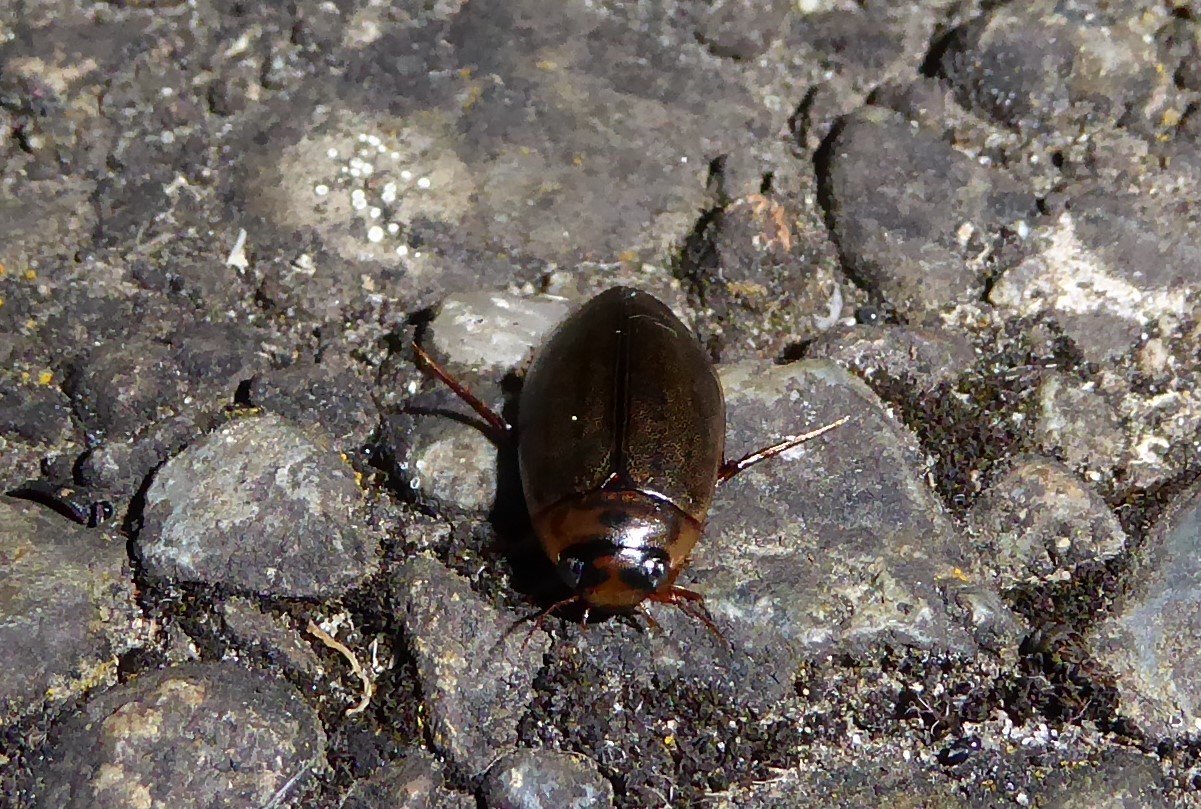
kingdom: Animalia
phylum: Arthropoda
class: Insecta
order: Coleoptera
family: Dytiscidae
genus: Rhantus
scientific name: Rhantus suturalis
